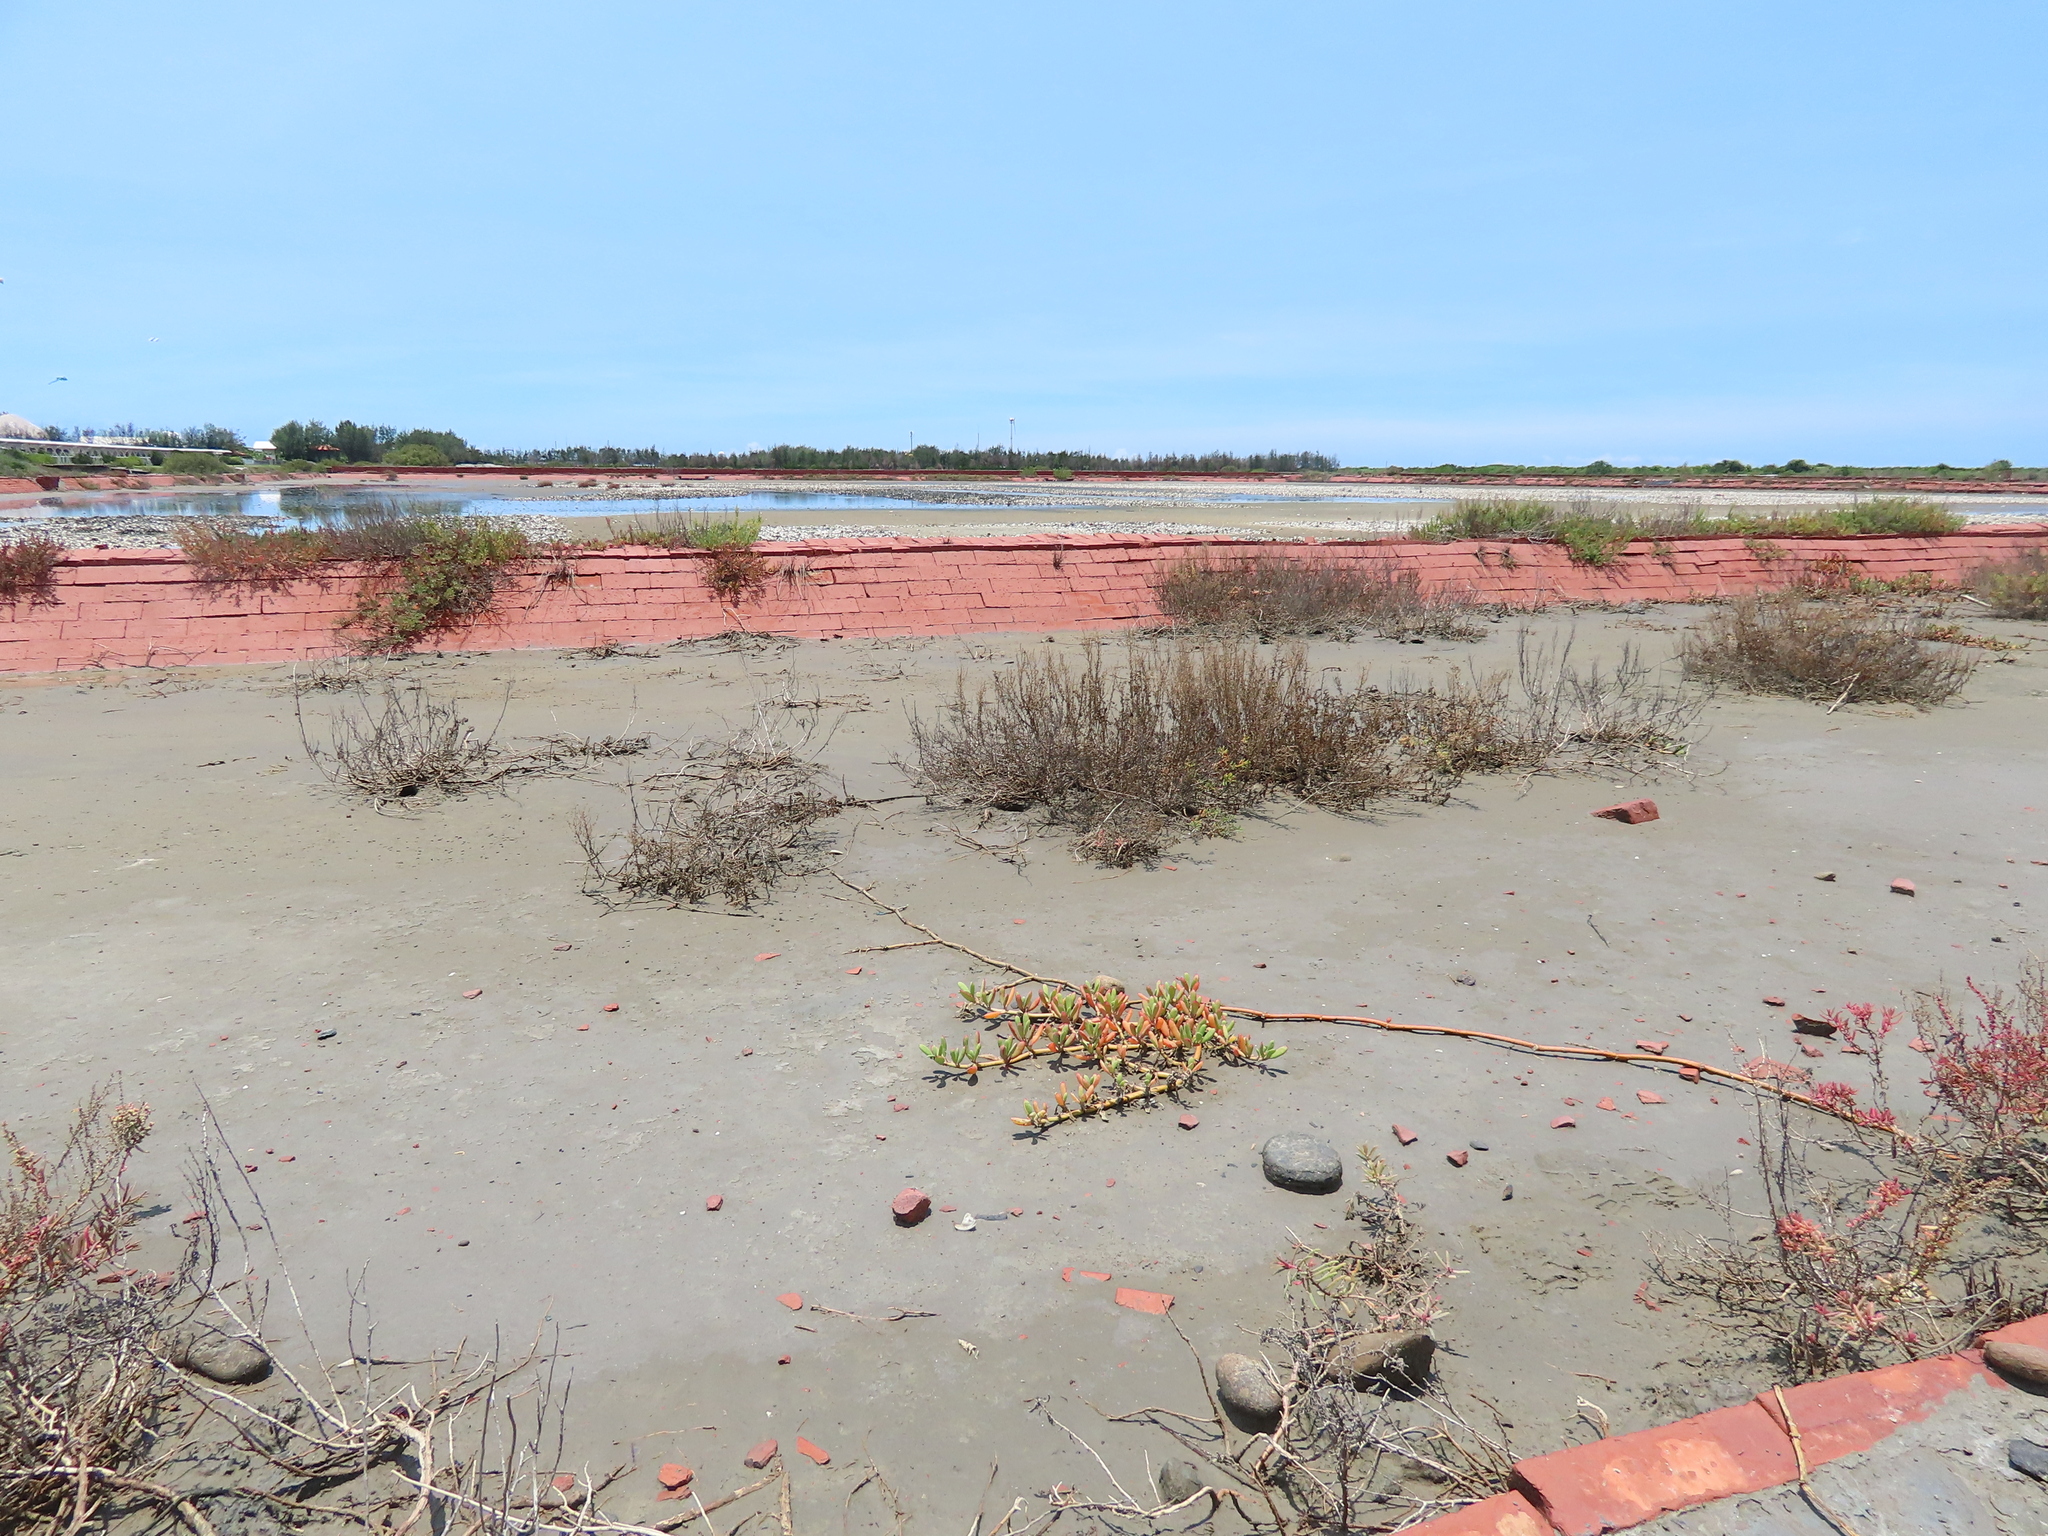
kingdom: Plantae
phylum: Tracheophyta
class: Magnoliopsida
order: Caryophyllales
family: Aizoaceae
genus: Sesuvium
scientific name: Sesuvium portulacastrum
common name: Sea-purslane
